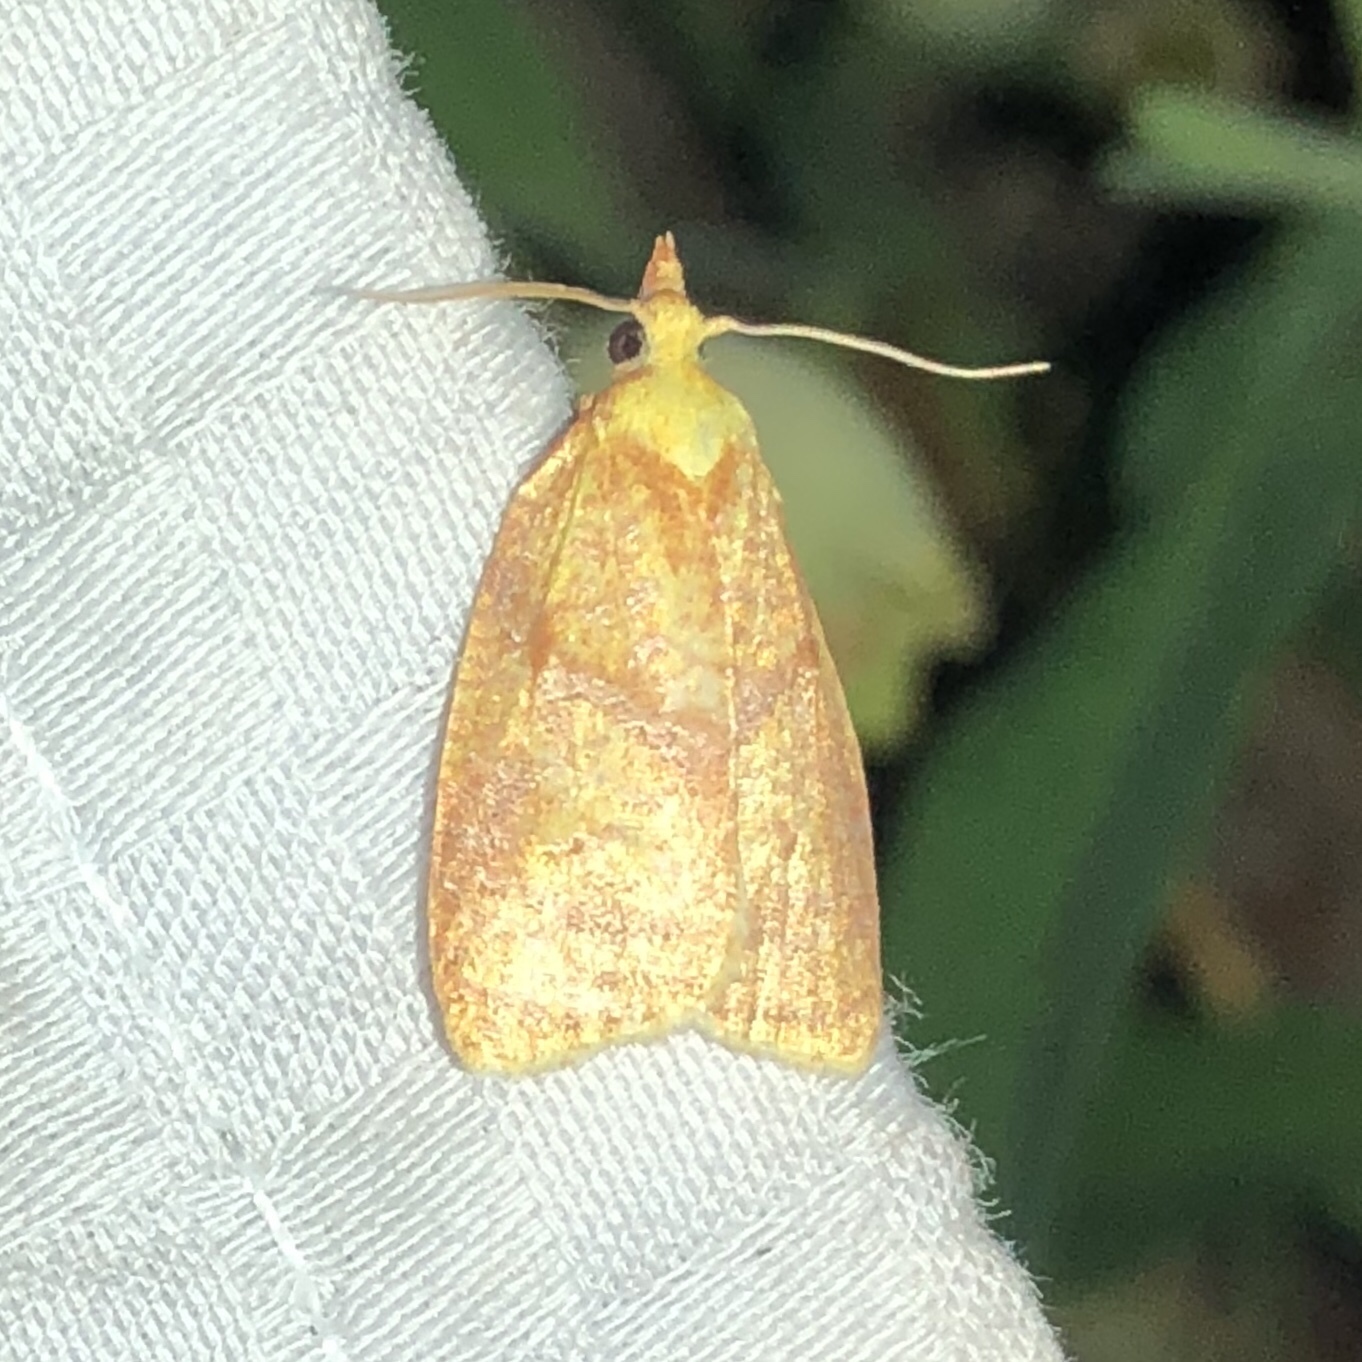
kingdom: Animalia
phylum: Arthropoda
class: Insecta
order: Lepidoptera
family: Tortricidae
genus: Cenopis
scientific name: Cenopis pettitana
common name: Maple-basswood leafroller moth
